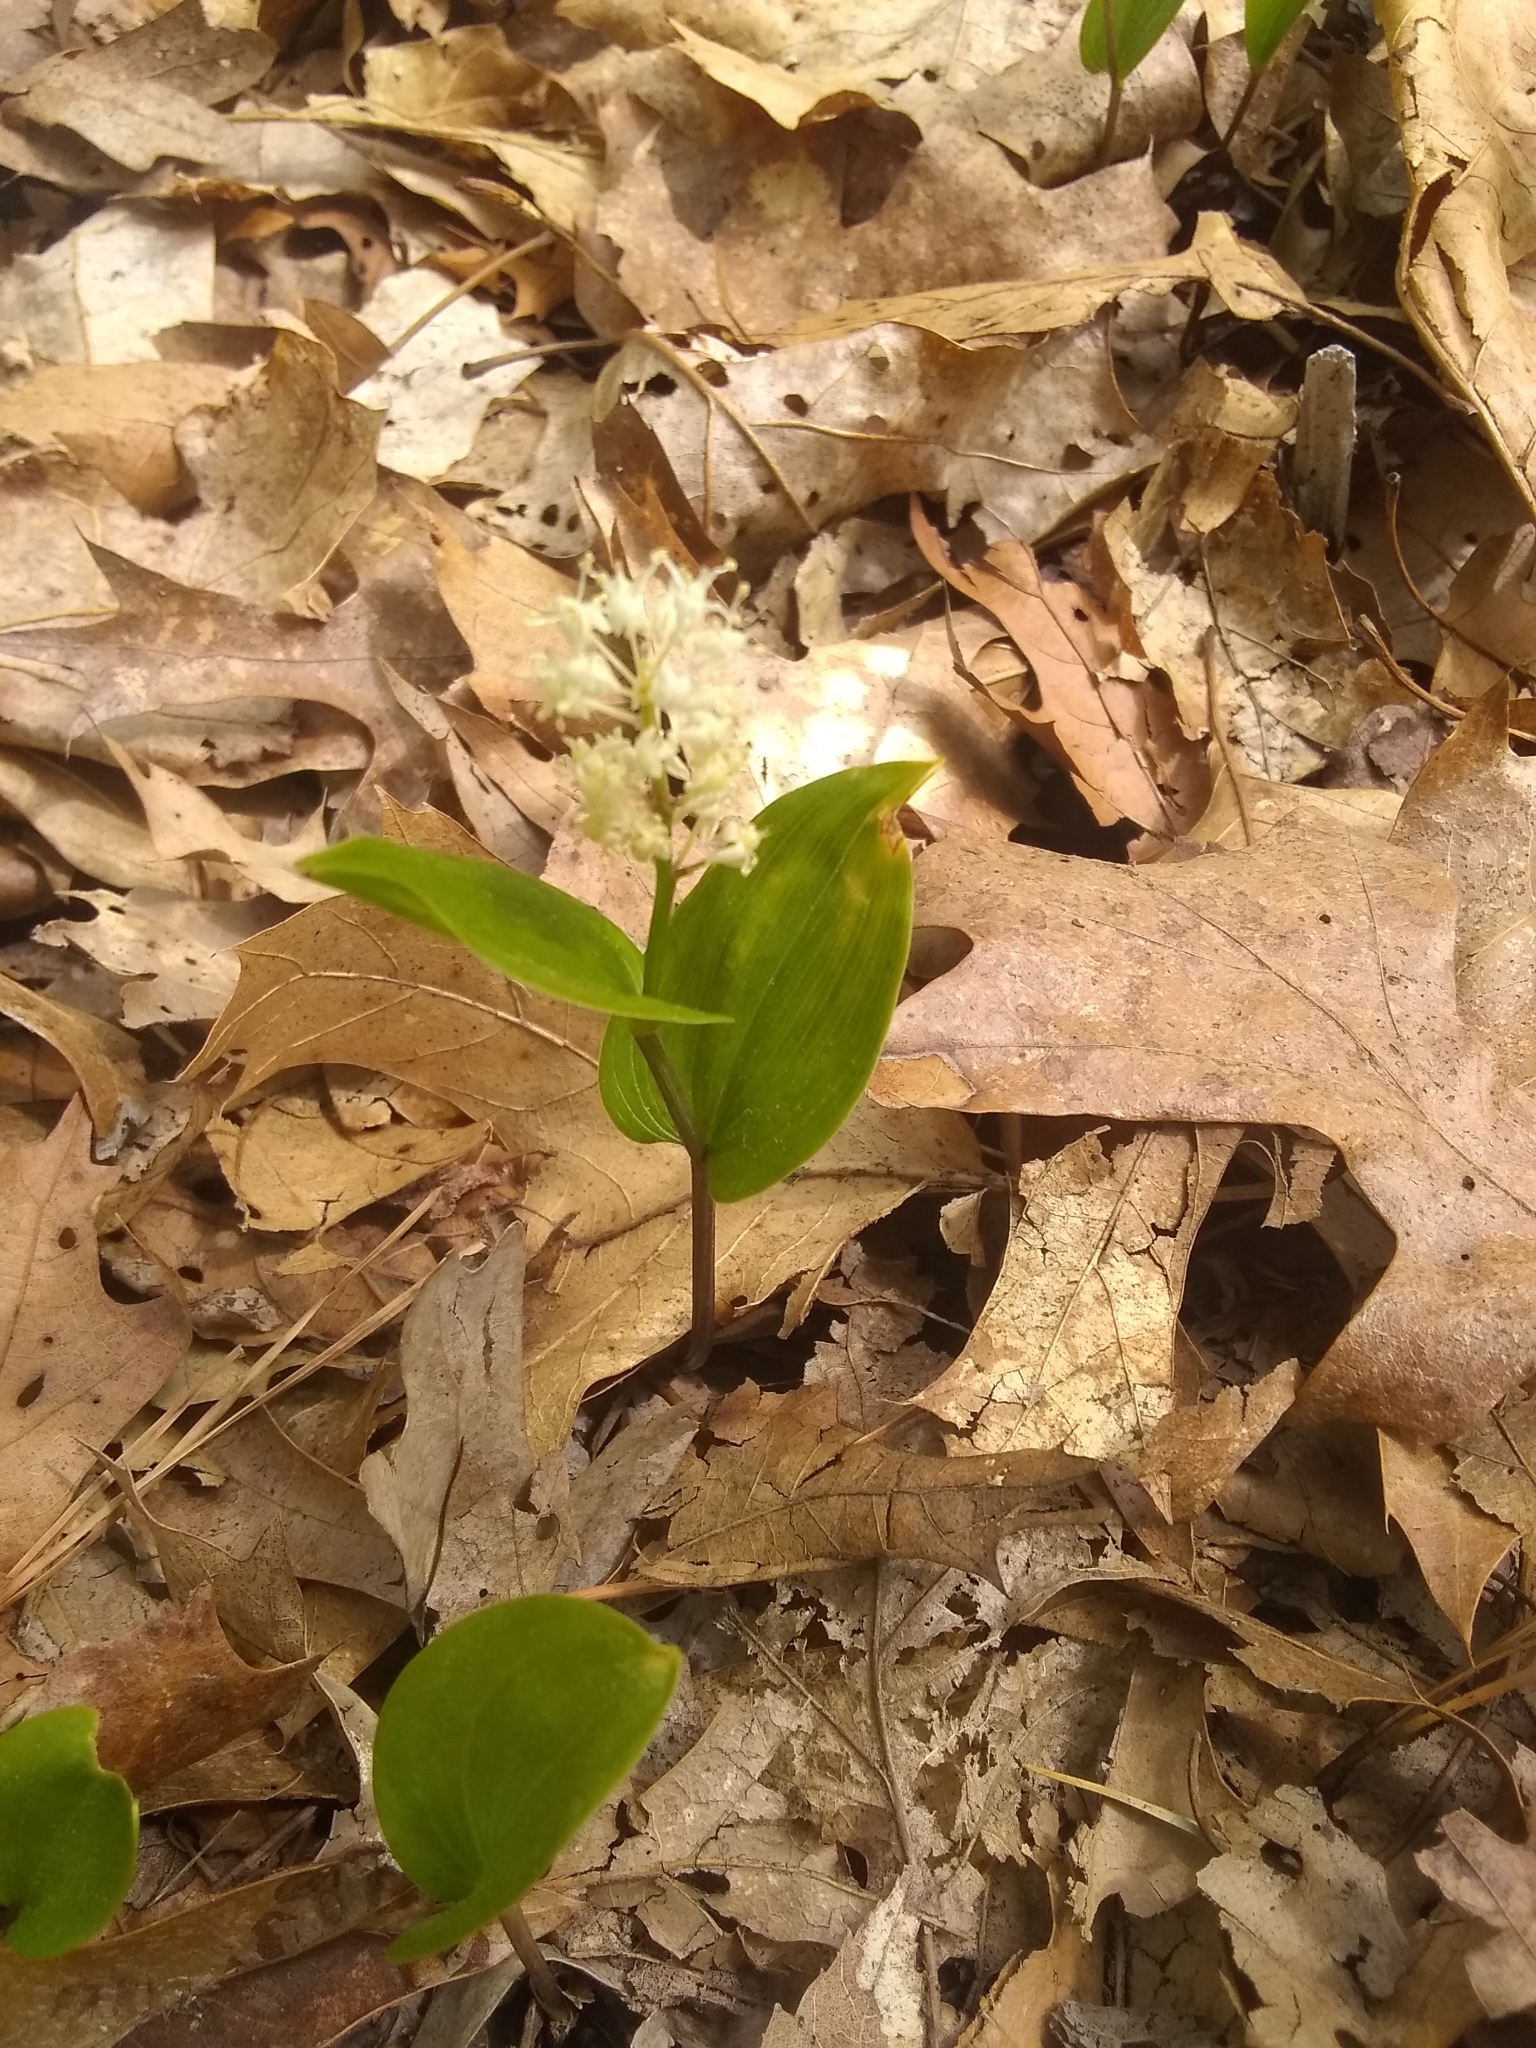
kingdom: Plantae
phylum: Tracheophyta
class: Liliopsida
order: Asparagales
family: Asparagaceae
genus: Maianthemum
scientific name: Maianthemum canadense
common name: False lily-of-the-valley
